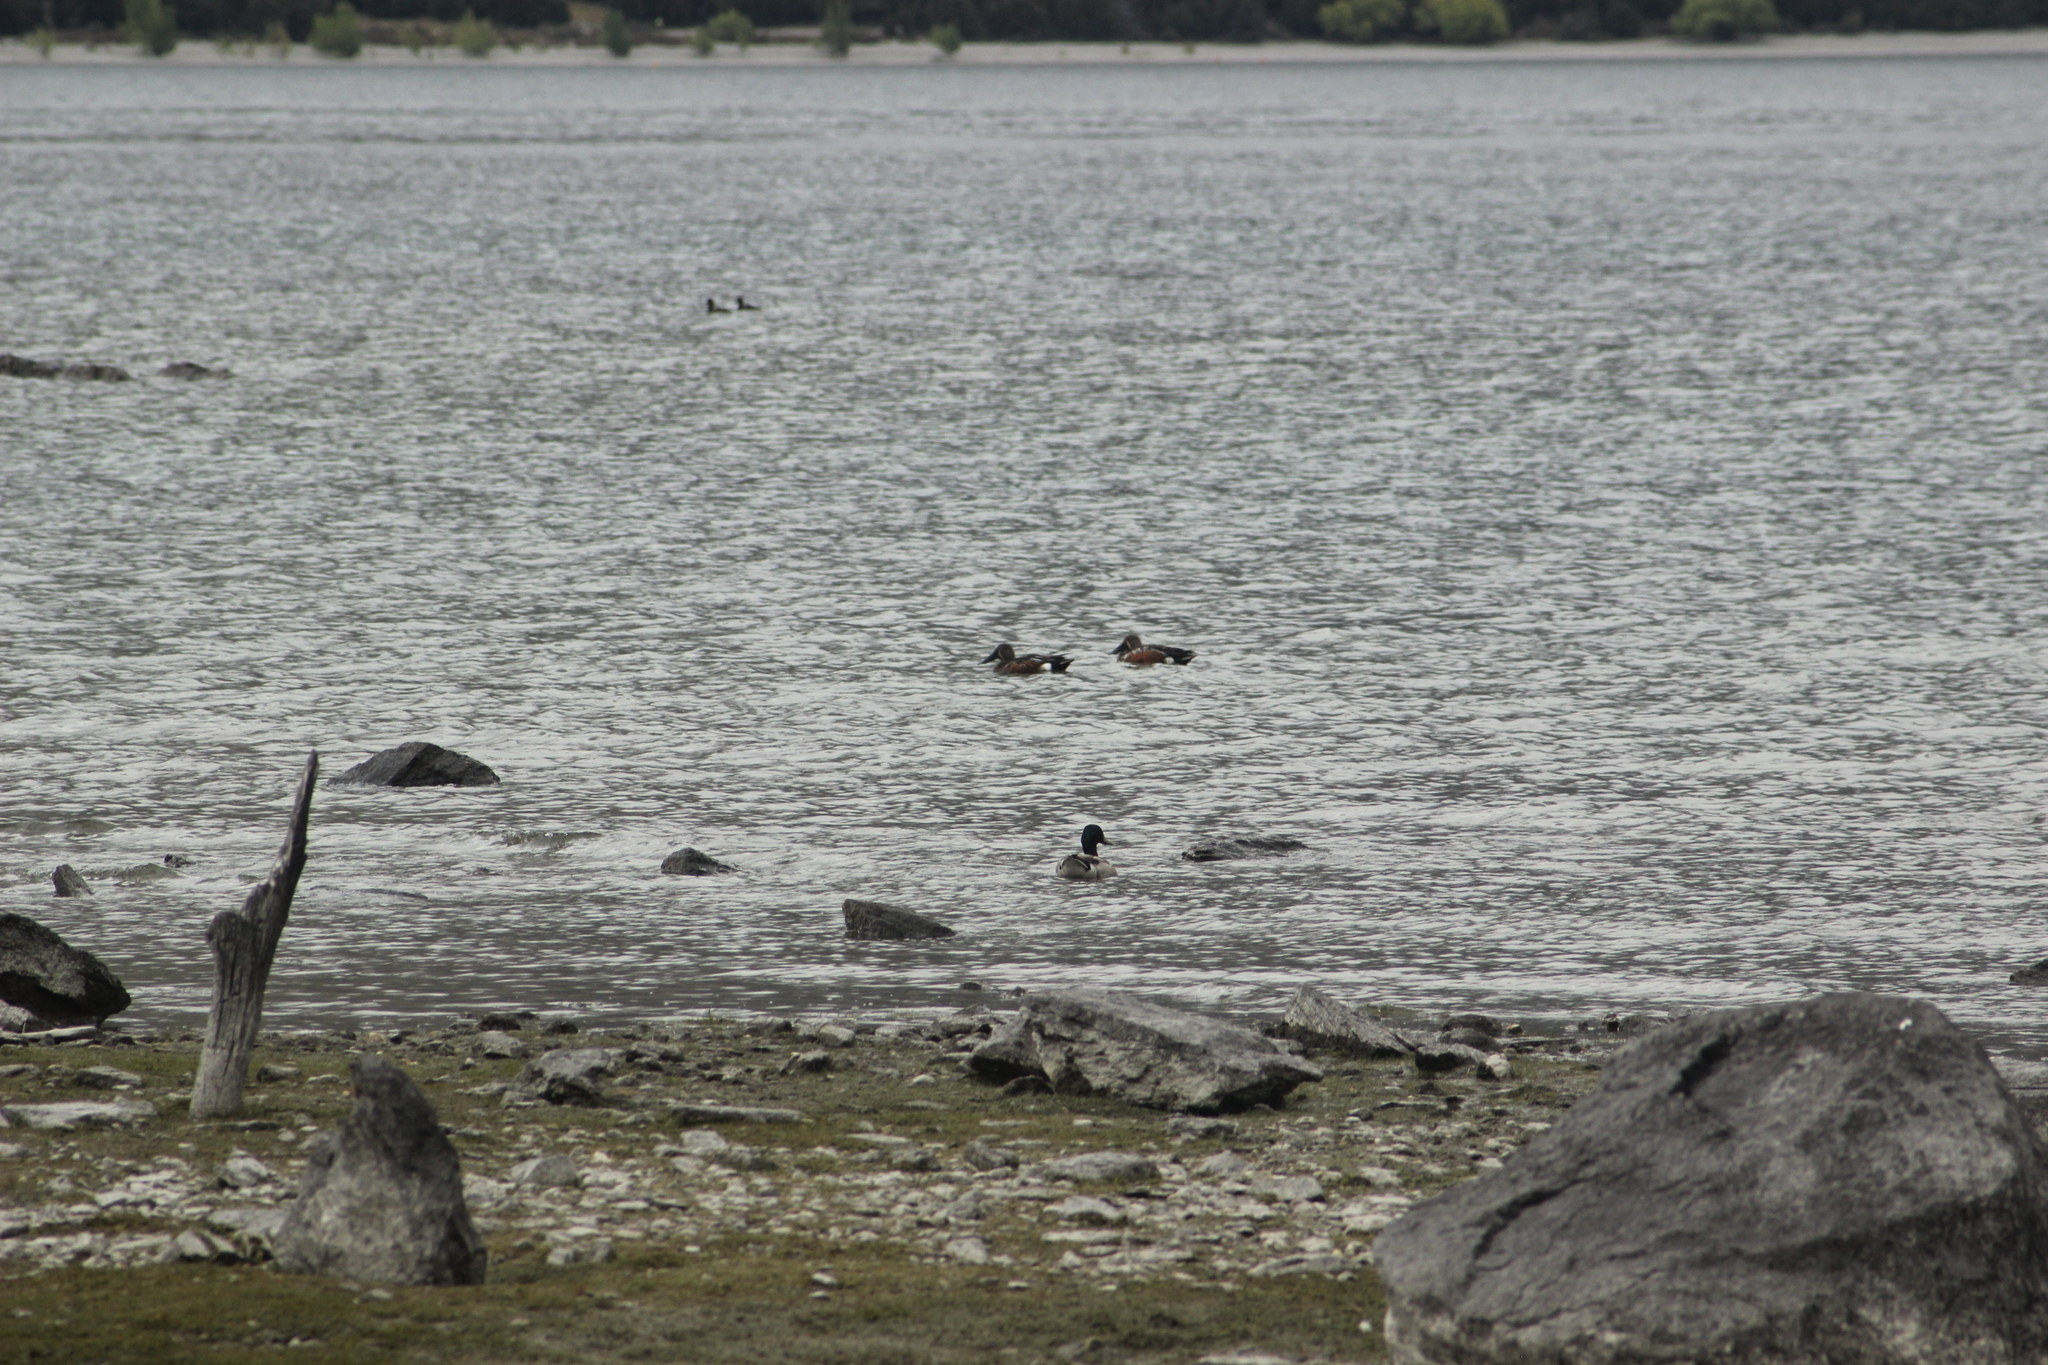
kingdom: Animalia
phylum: Chordata
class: Aves
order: Anseriformes
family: Anatidae
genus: Spatula
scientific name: Spatula rhynchotis
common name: Australian shoveler
